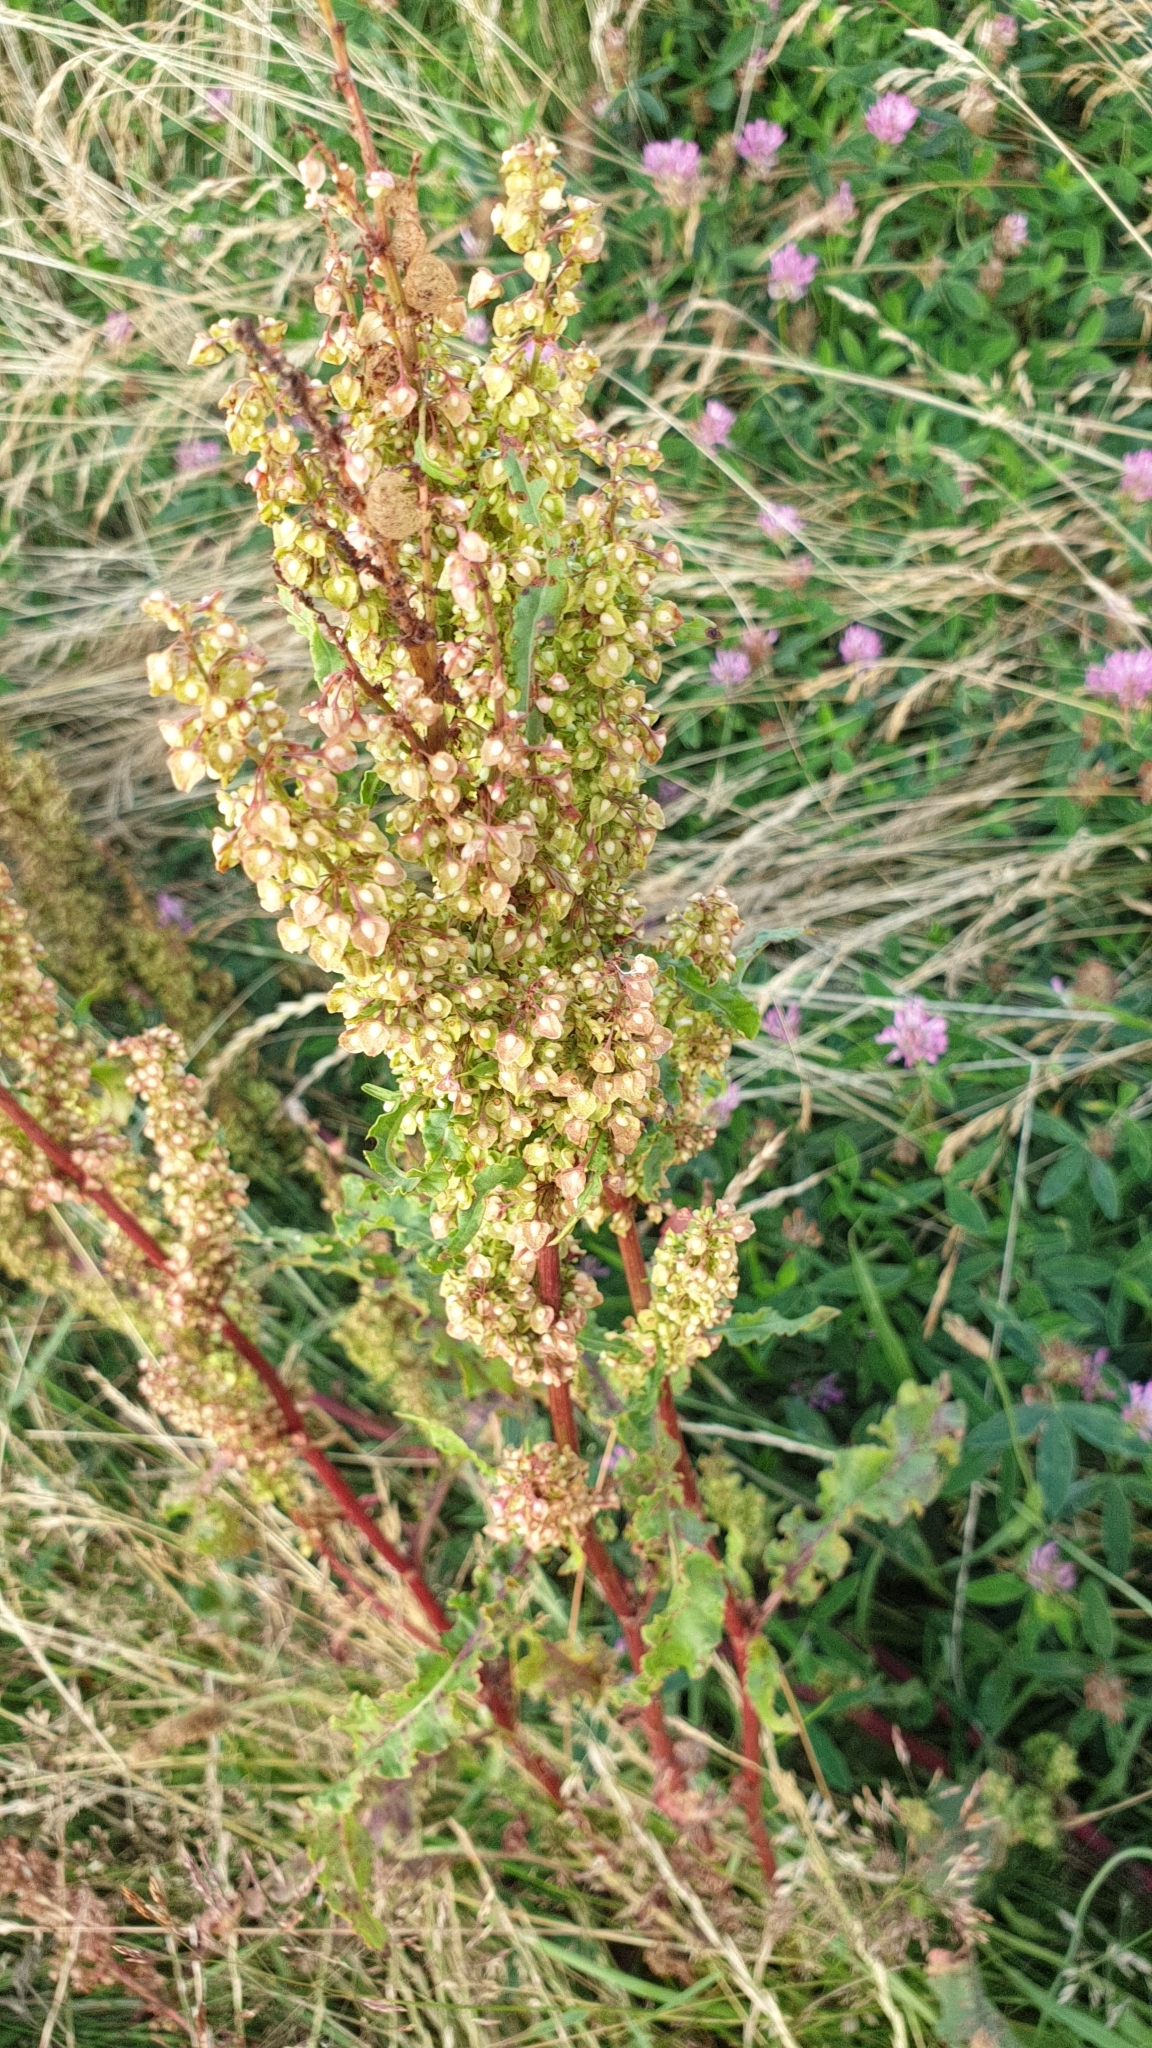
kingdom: Plantae
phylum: Tracheophyta
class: Magnoliopsida
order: Caryophyllales
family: Polygonaceae
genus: Rumex
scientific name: Rumex crispus
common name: Curled dock
